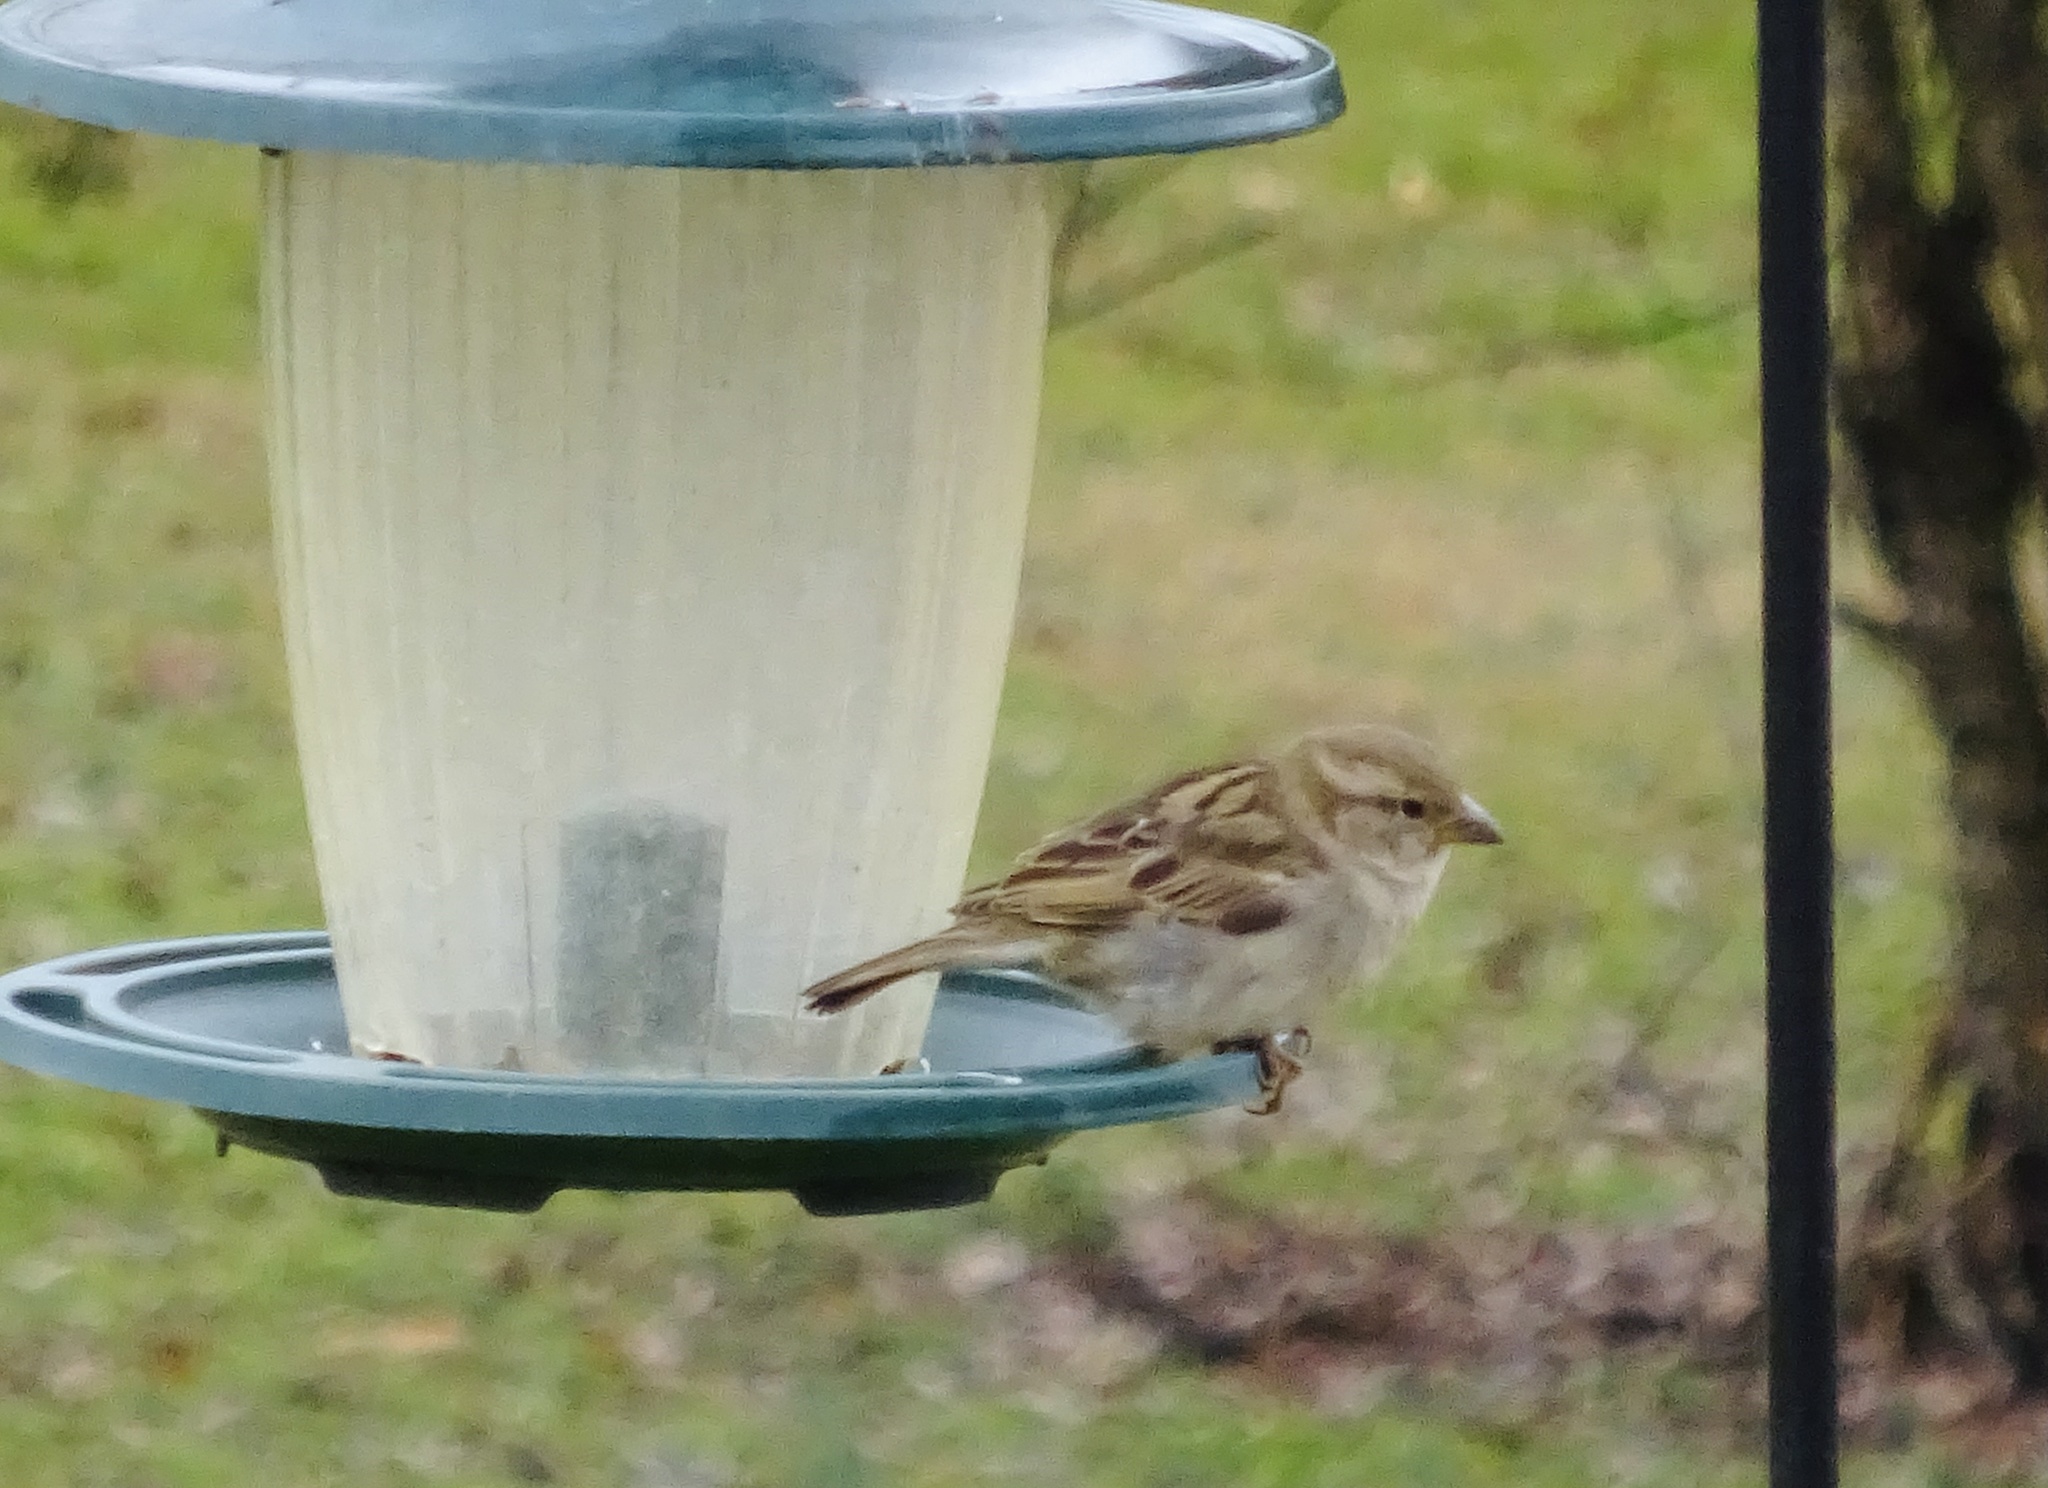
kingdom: Animalia
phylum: Chordata
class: Aves
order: Passeriformes
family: Passeridae
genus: Passer
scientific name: Passer domesticus
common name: House sparrow
